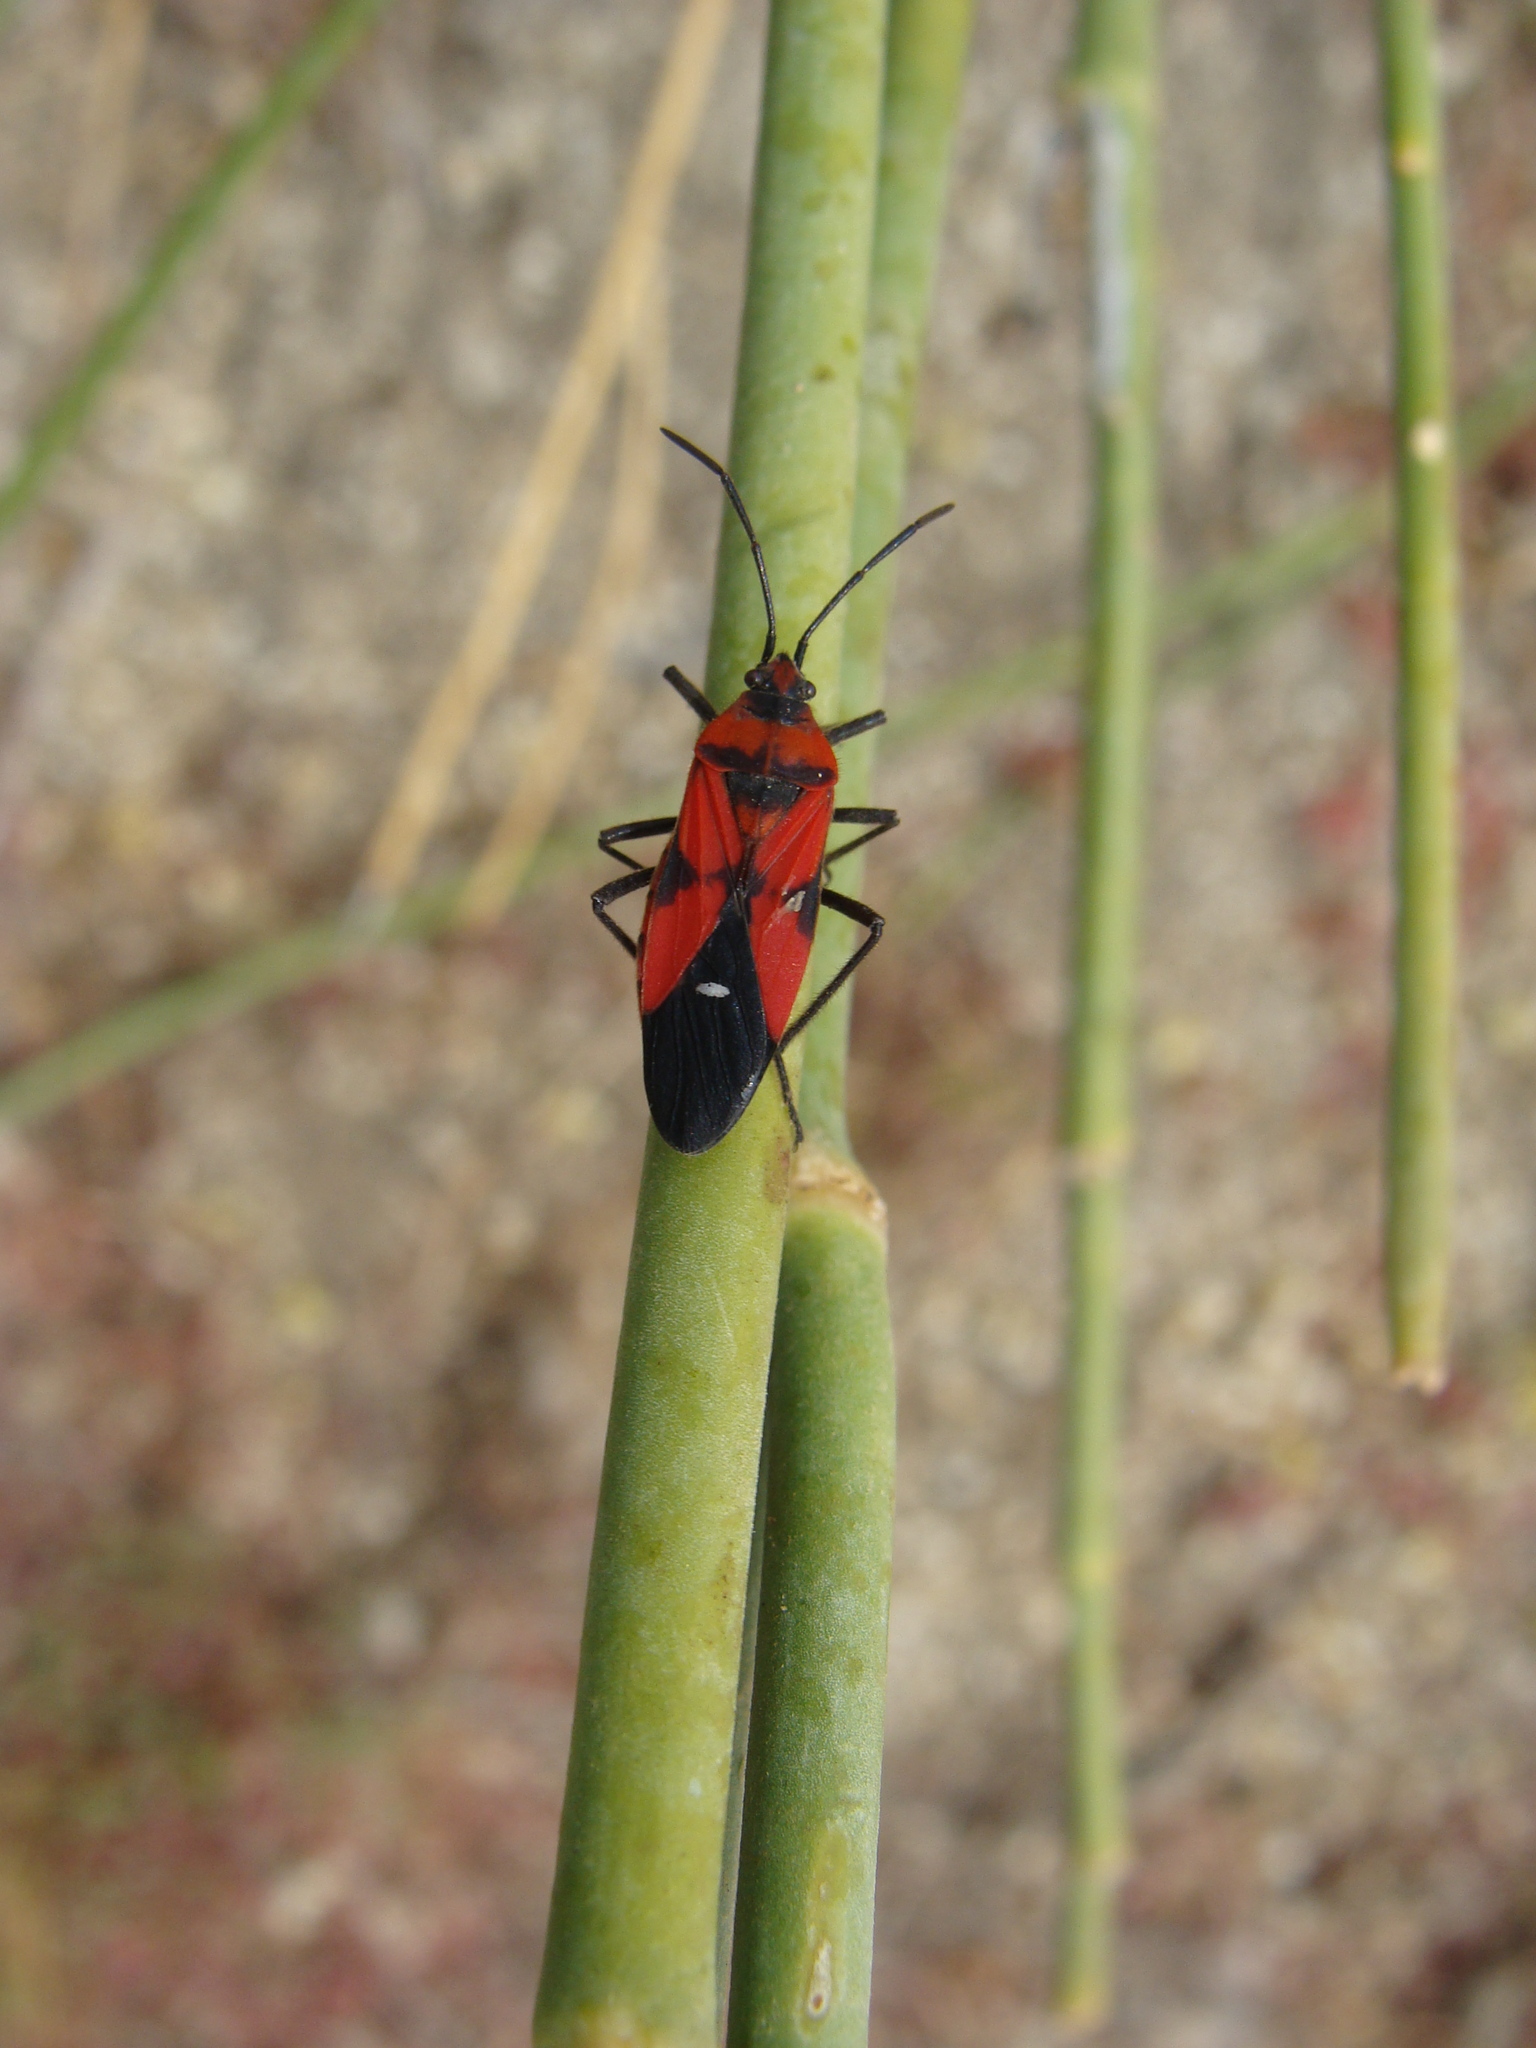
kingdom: Animalia
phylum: Arthropoda
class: Insecta
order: Hemiptera
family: Lygaeidae
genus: Oncopeltus
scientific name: Oncopeltus sanguinolentus
